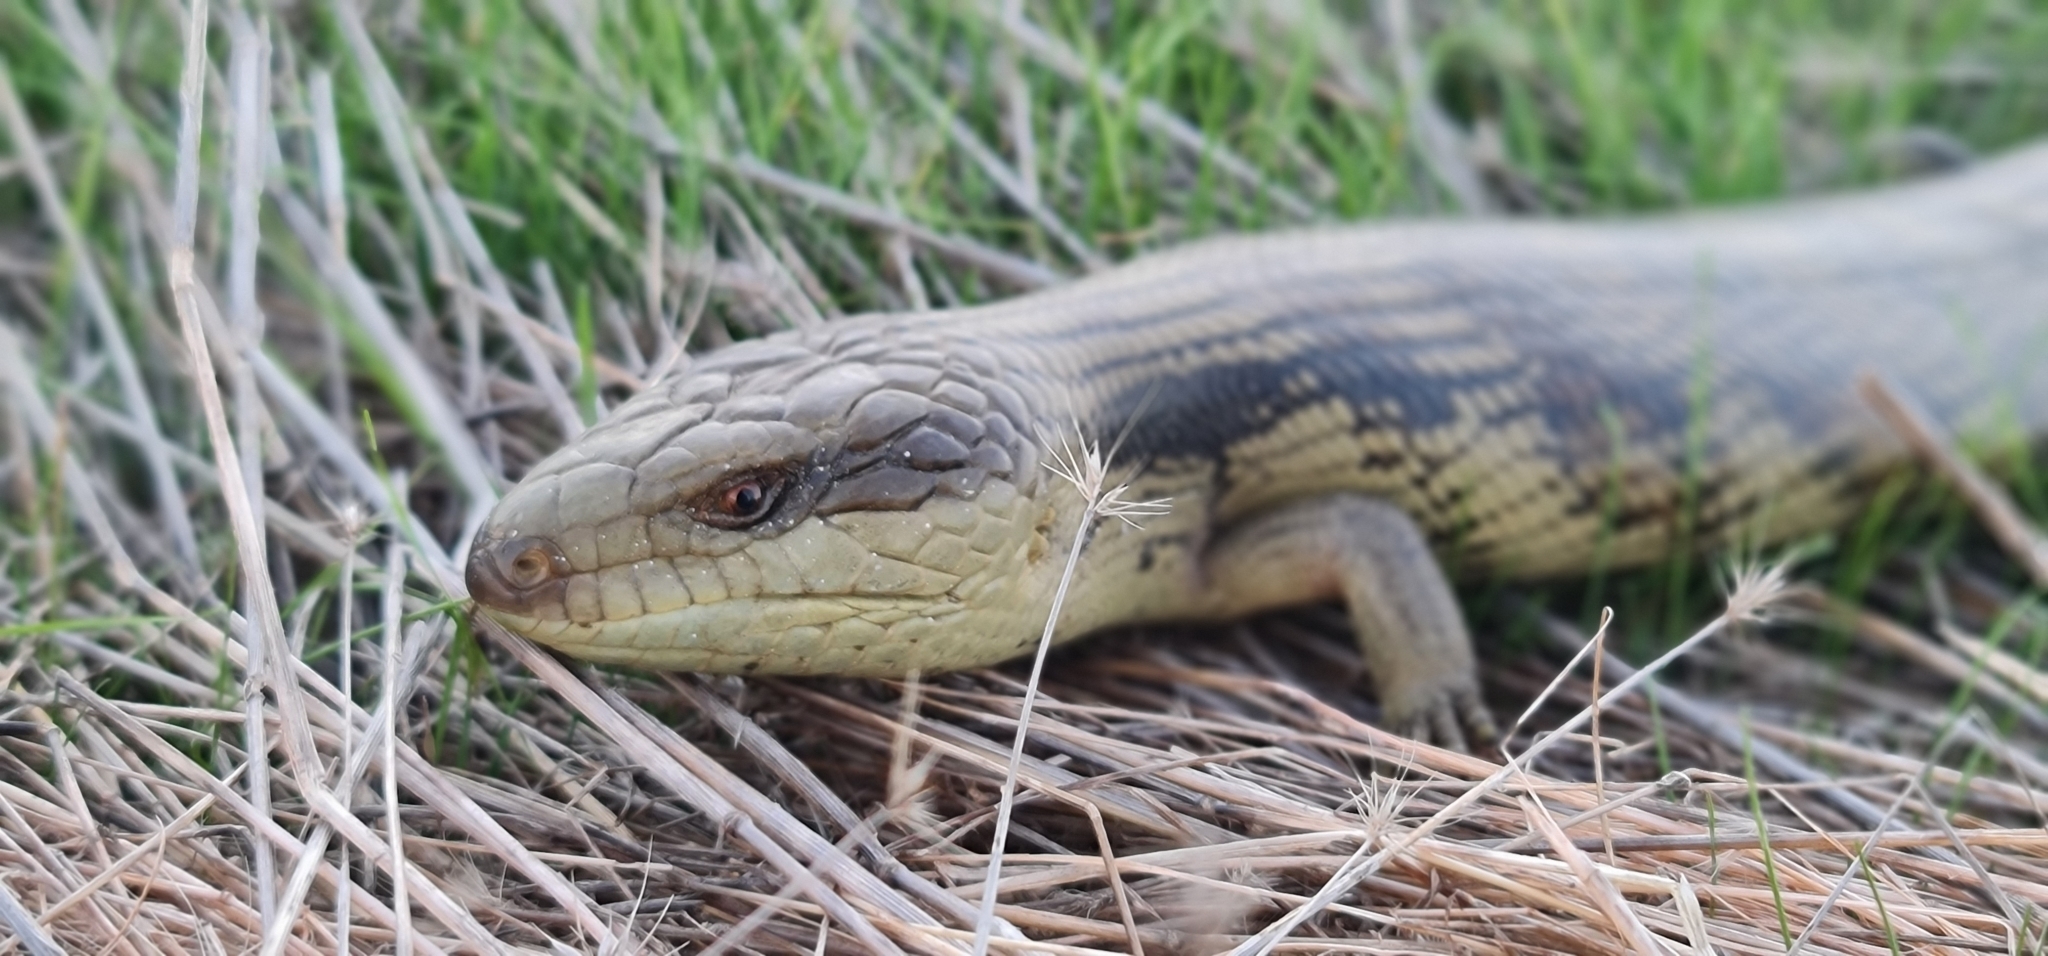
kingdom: Animalia
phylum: Chordata
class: Squamata
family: Scincidae
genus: Tiliqua
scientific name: Tiliqua scincoides
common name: Common bluetongue
